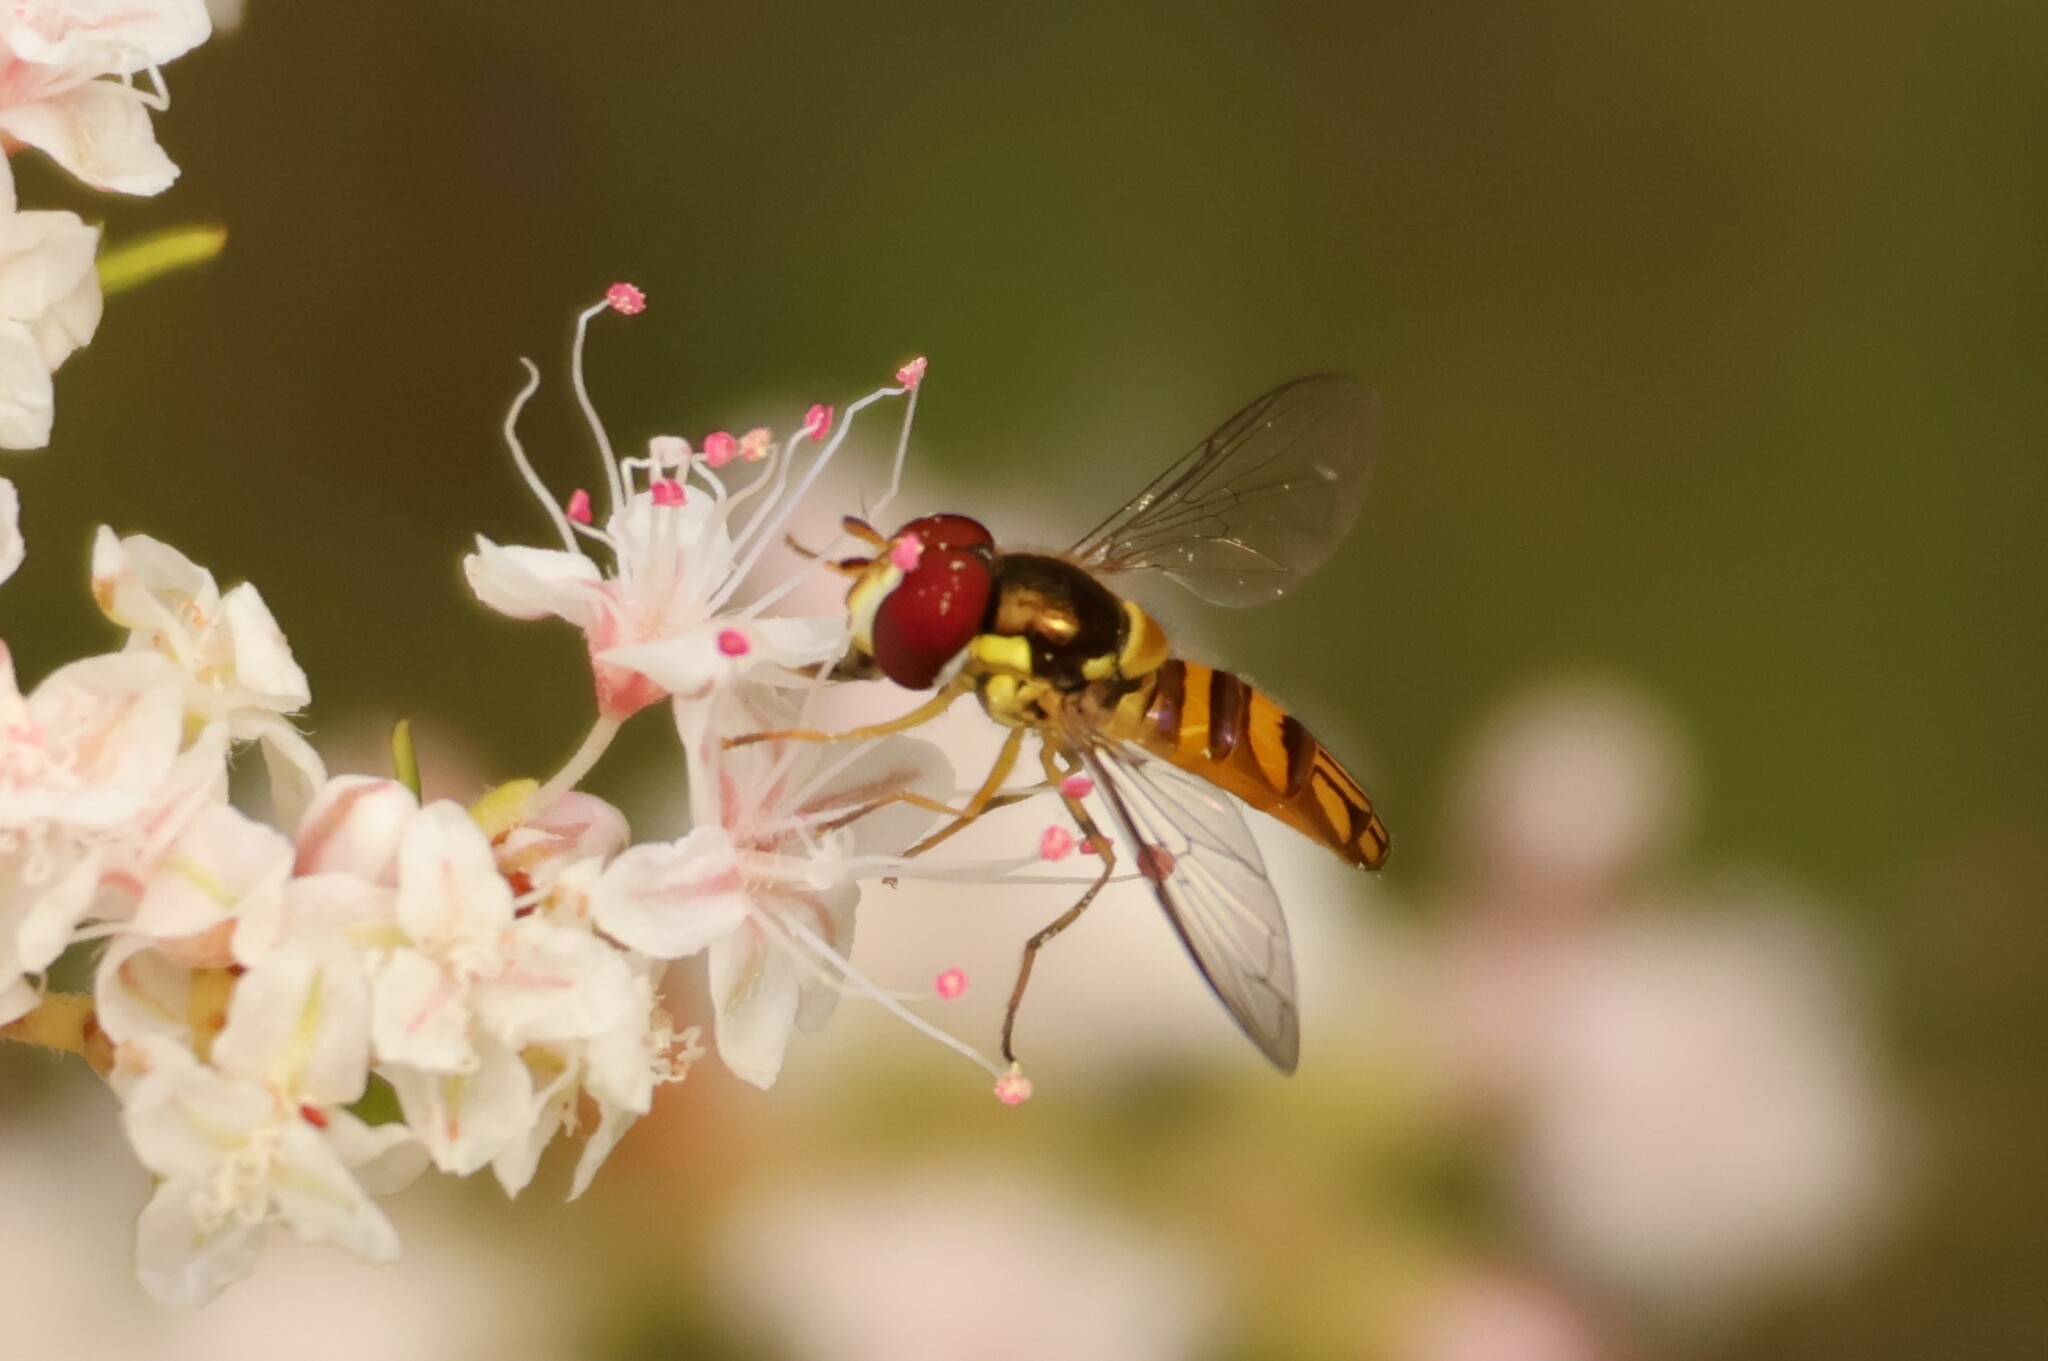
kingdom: Animalia
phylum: Arthropoda
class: Insecta
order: Diptera
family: Syrphidae
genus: Allograpta
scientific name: Allograpta obliqua
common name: Common oblique syrphid
